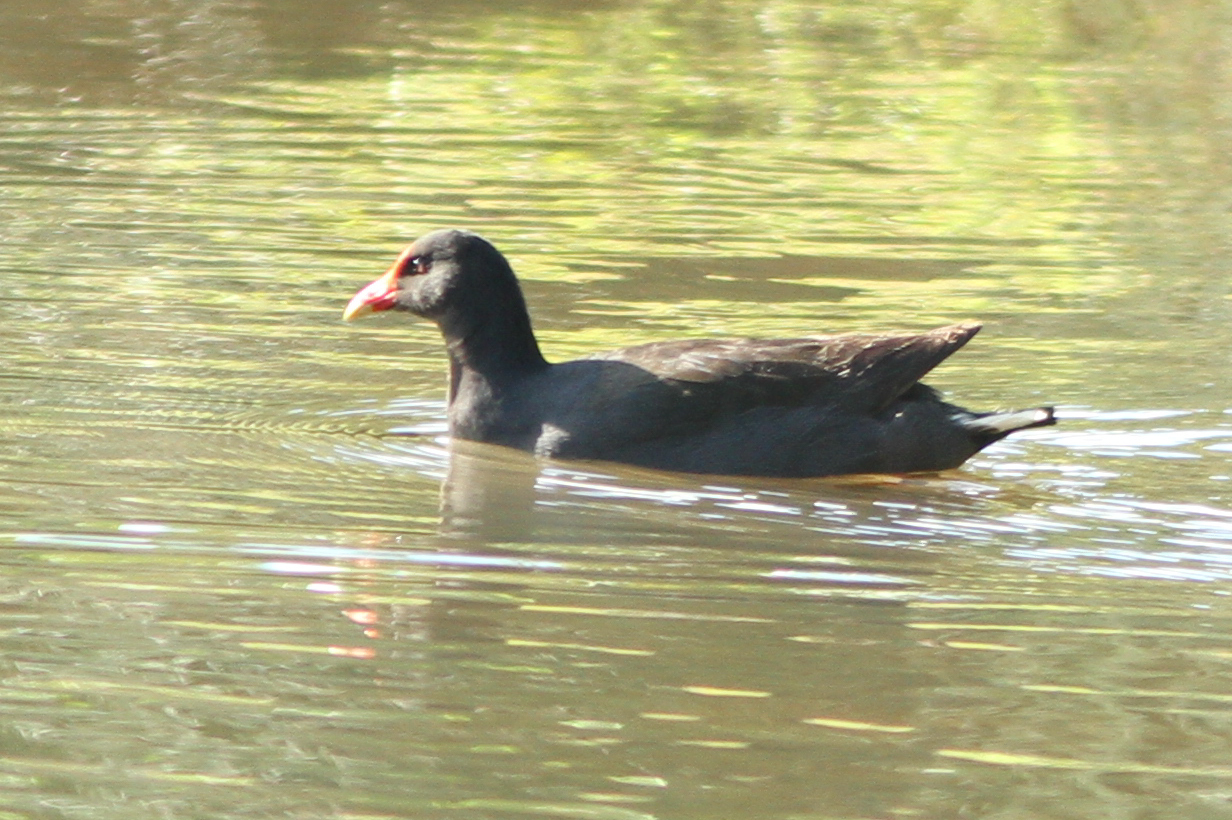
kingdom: Animalia
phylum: Chordata
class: Aves
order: Gruiformes
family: Rallidae
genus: Gallinula
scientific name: Gallinula tenebrosa
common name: Dusky moorhen
